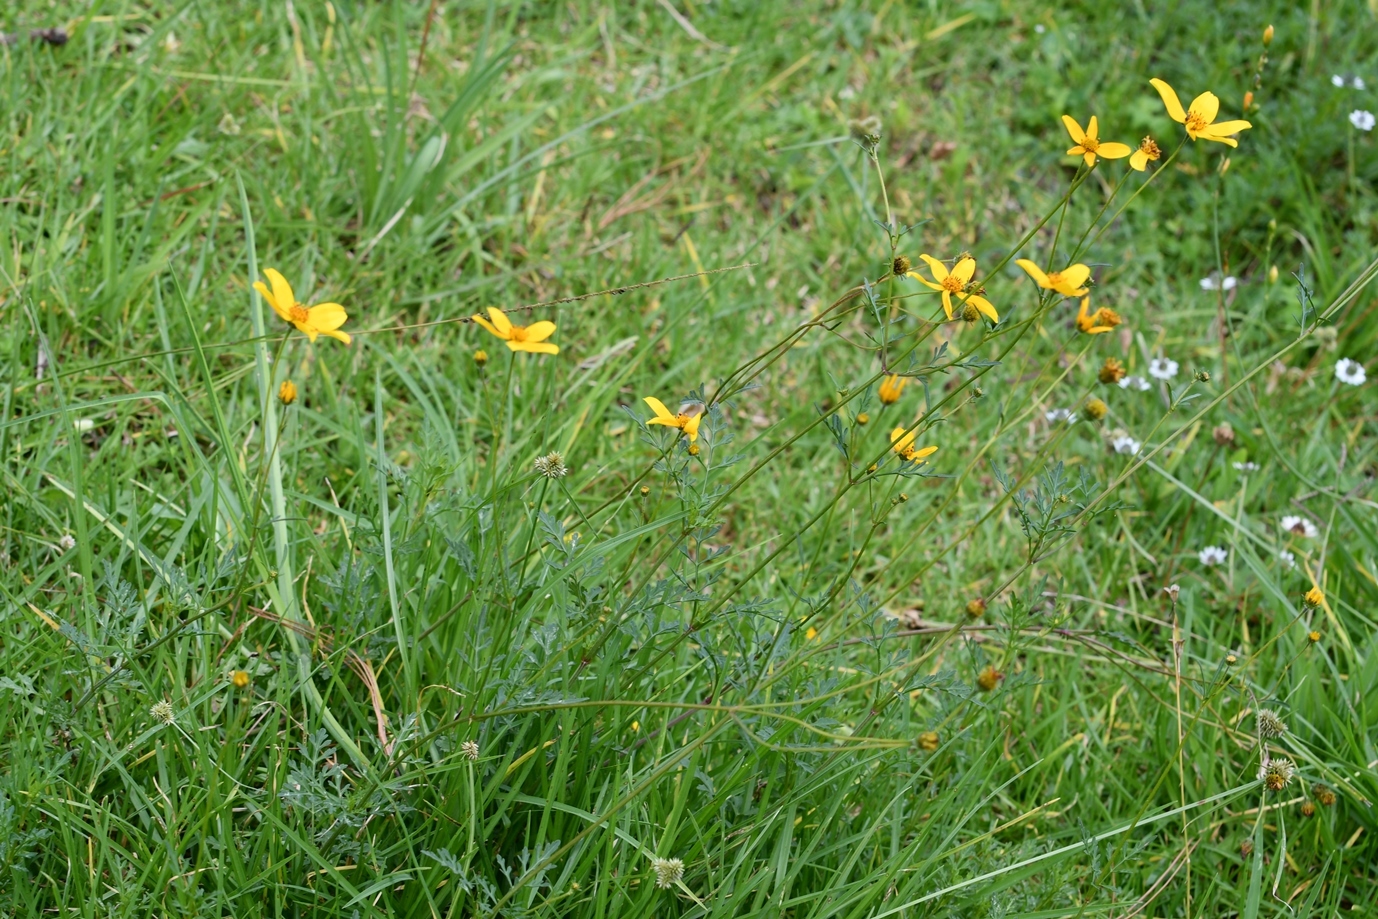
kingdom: Plantae
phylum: Tracheophyta
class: Magnoliopsida
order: Asterales
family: Asteraceae
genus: Bidens
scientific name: Bidens triplinervia
